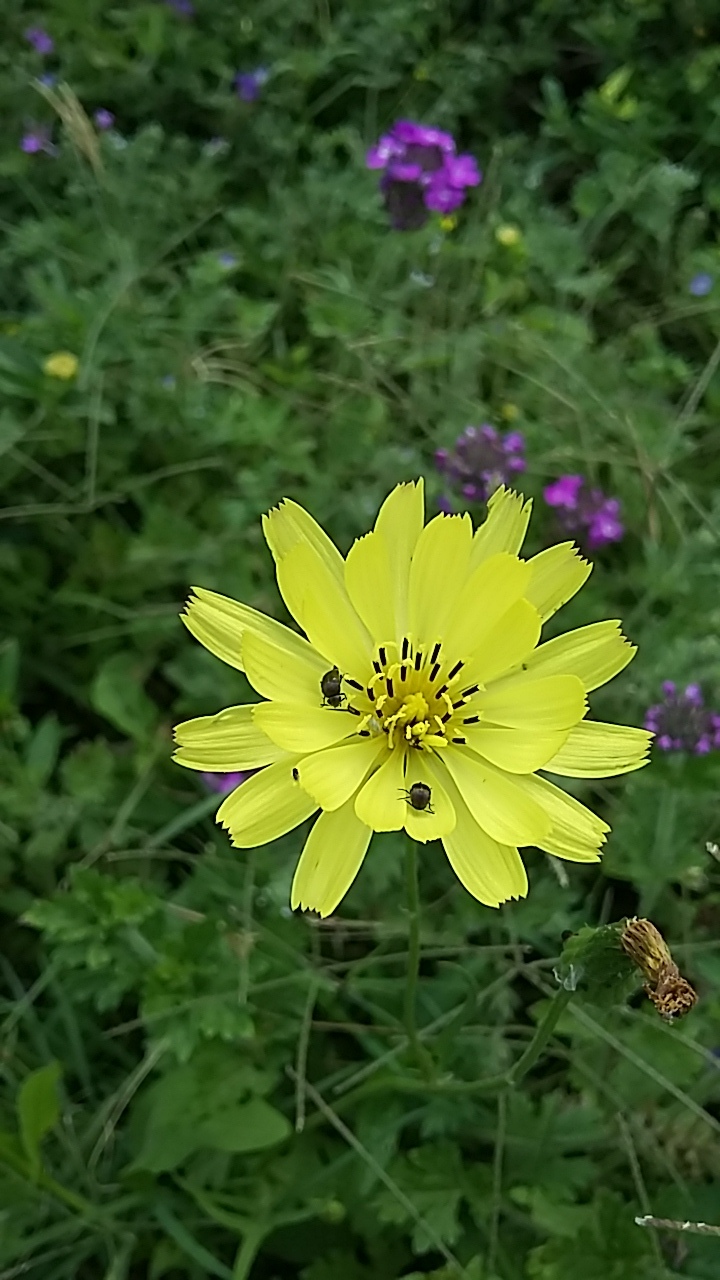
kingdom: Plantae
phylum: Tracheophyta
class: Magnoliopsida
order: Asterales
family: Asteraceae
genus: Pyrrhopappus
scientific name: Pyrrhopappus pauciflorus
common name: Texas false dandelion
